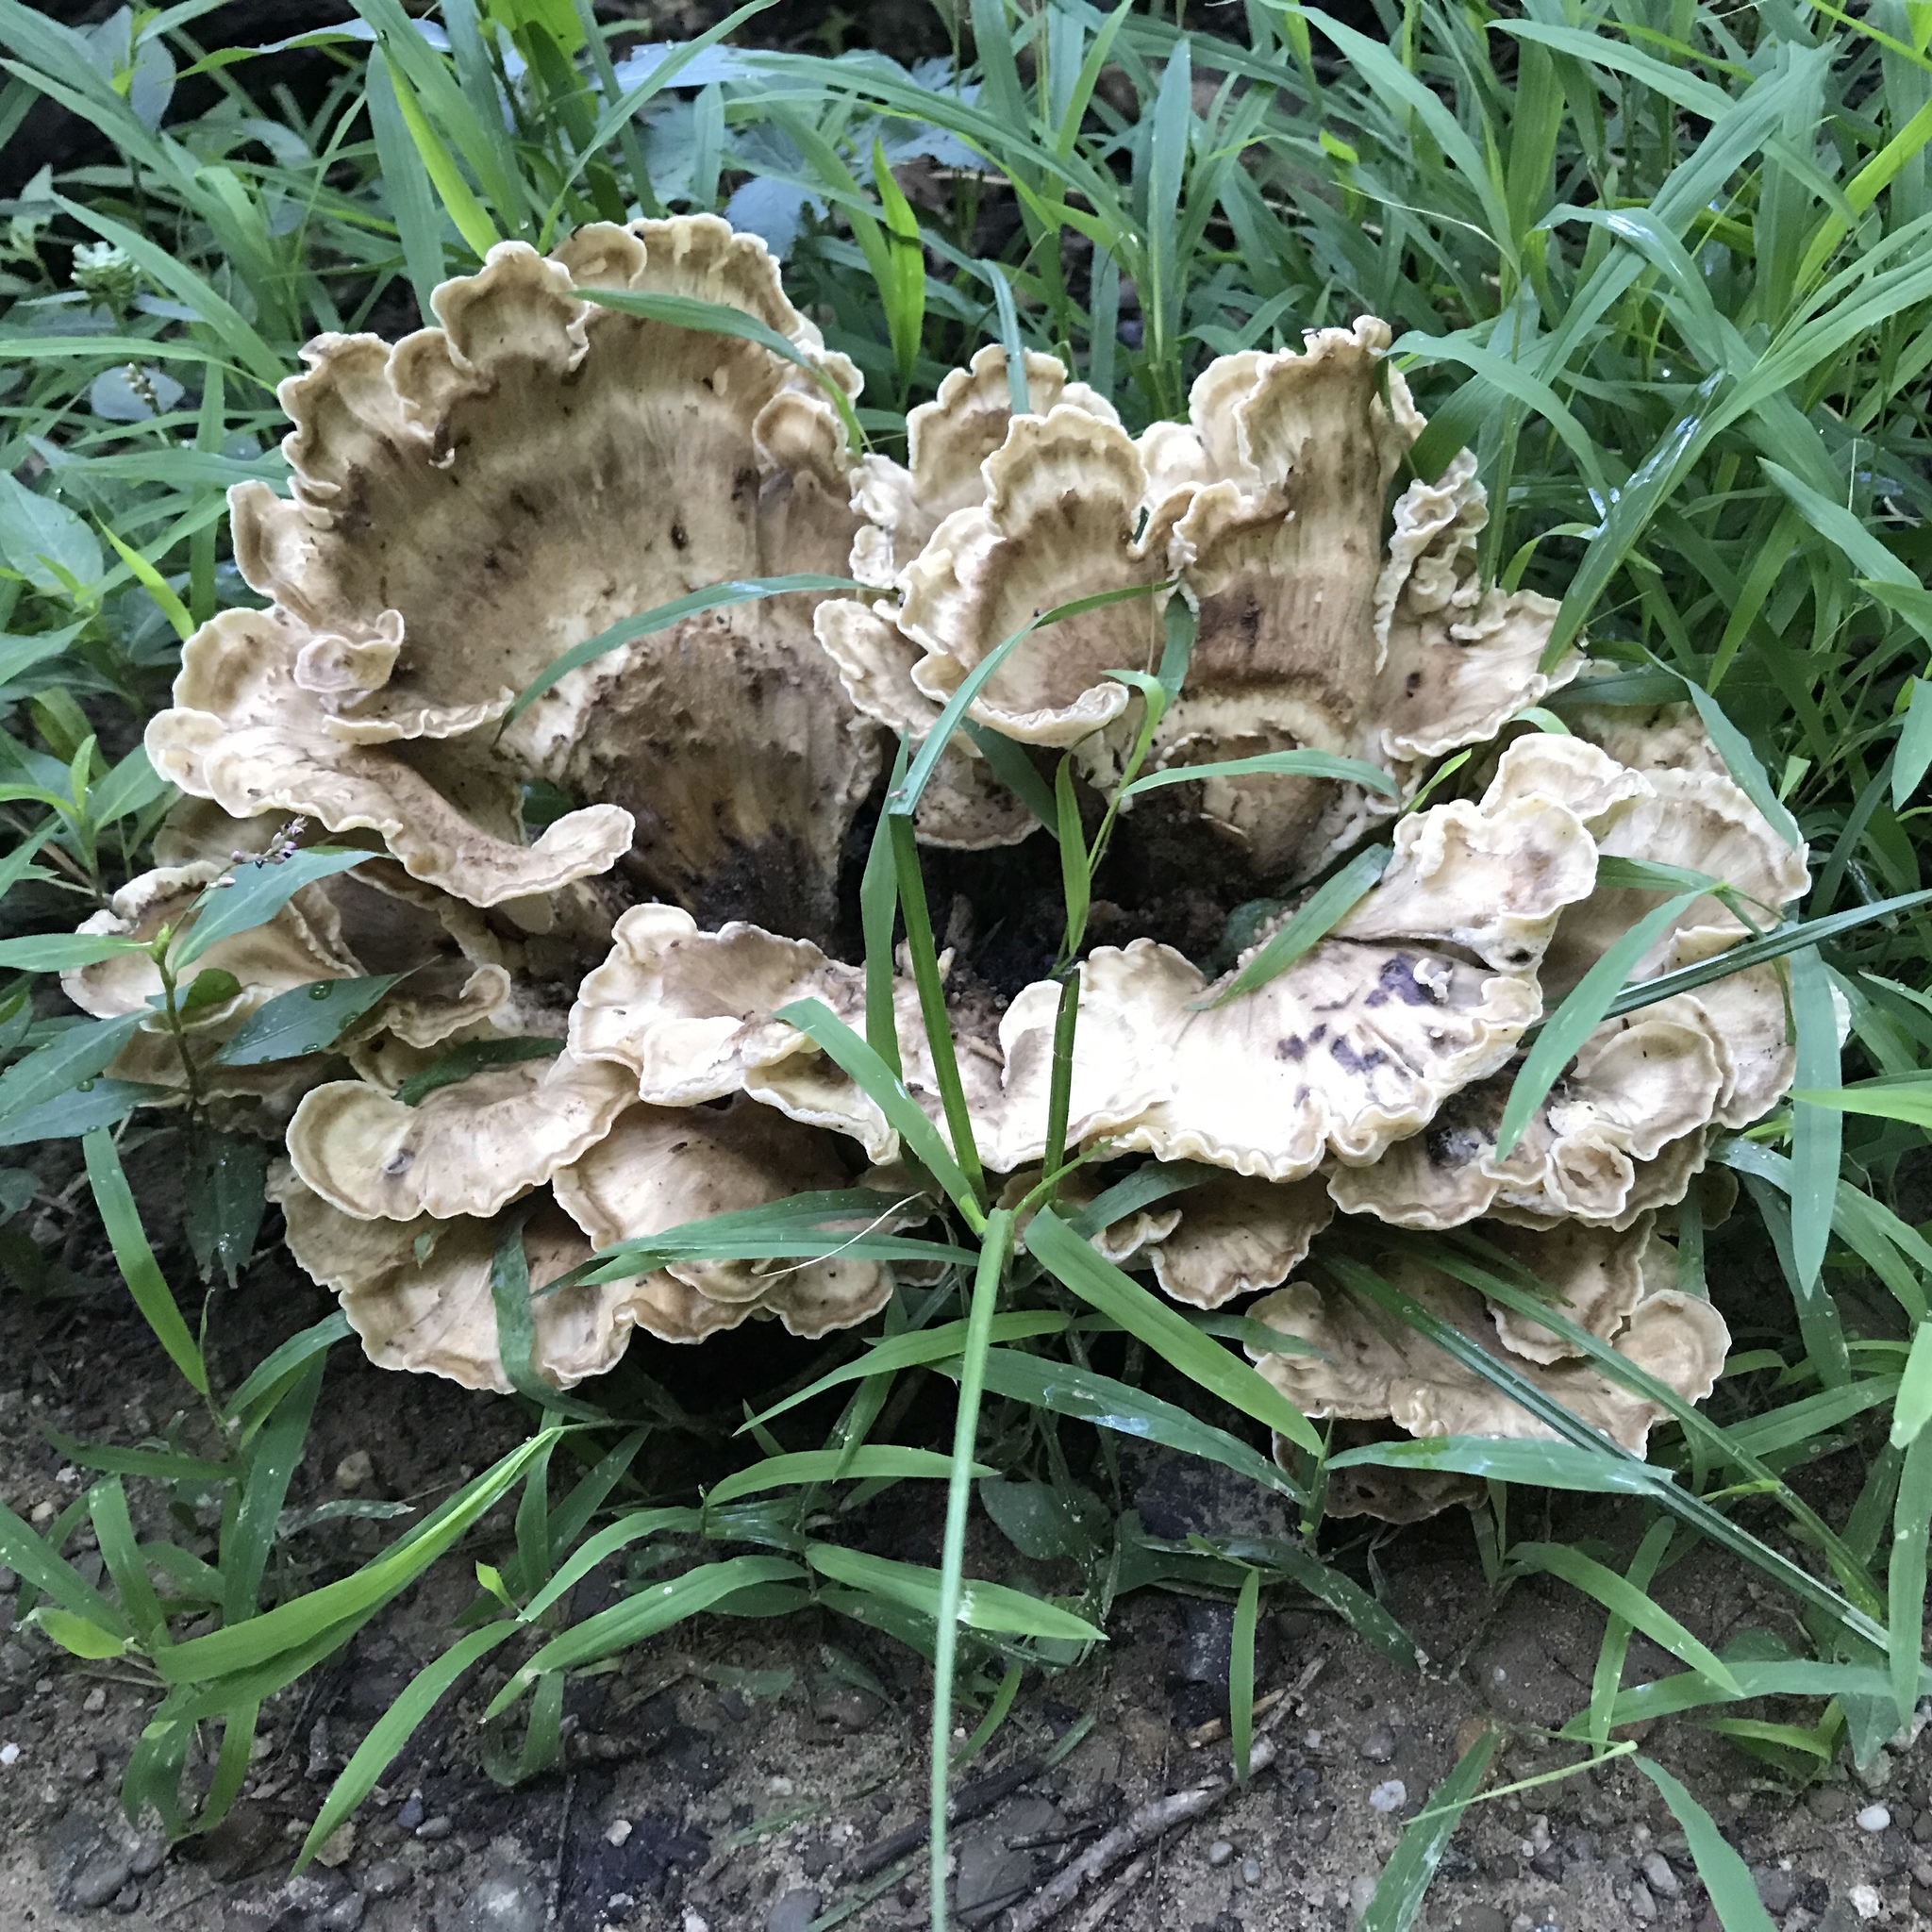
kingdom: Fungi
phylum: Basidiomycota
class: Agaricomycetes
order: Polyporales
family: Meripilaceae
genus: Meripilus
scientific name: Meripilus sumstinei
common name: Black-staining polypore
